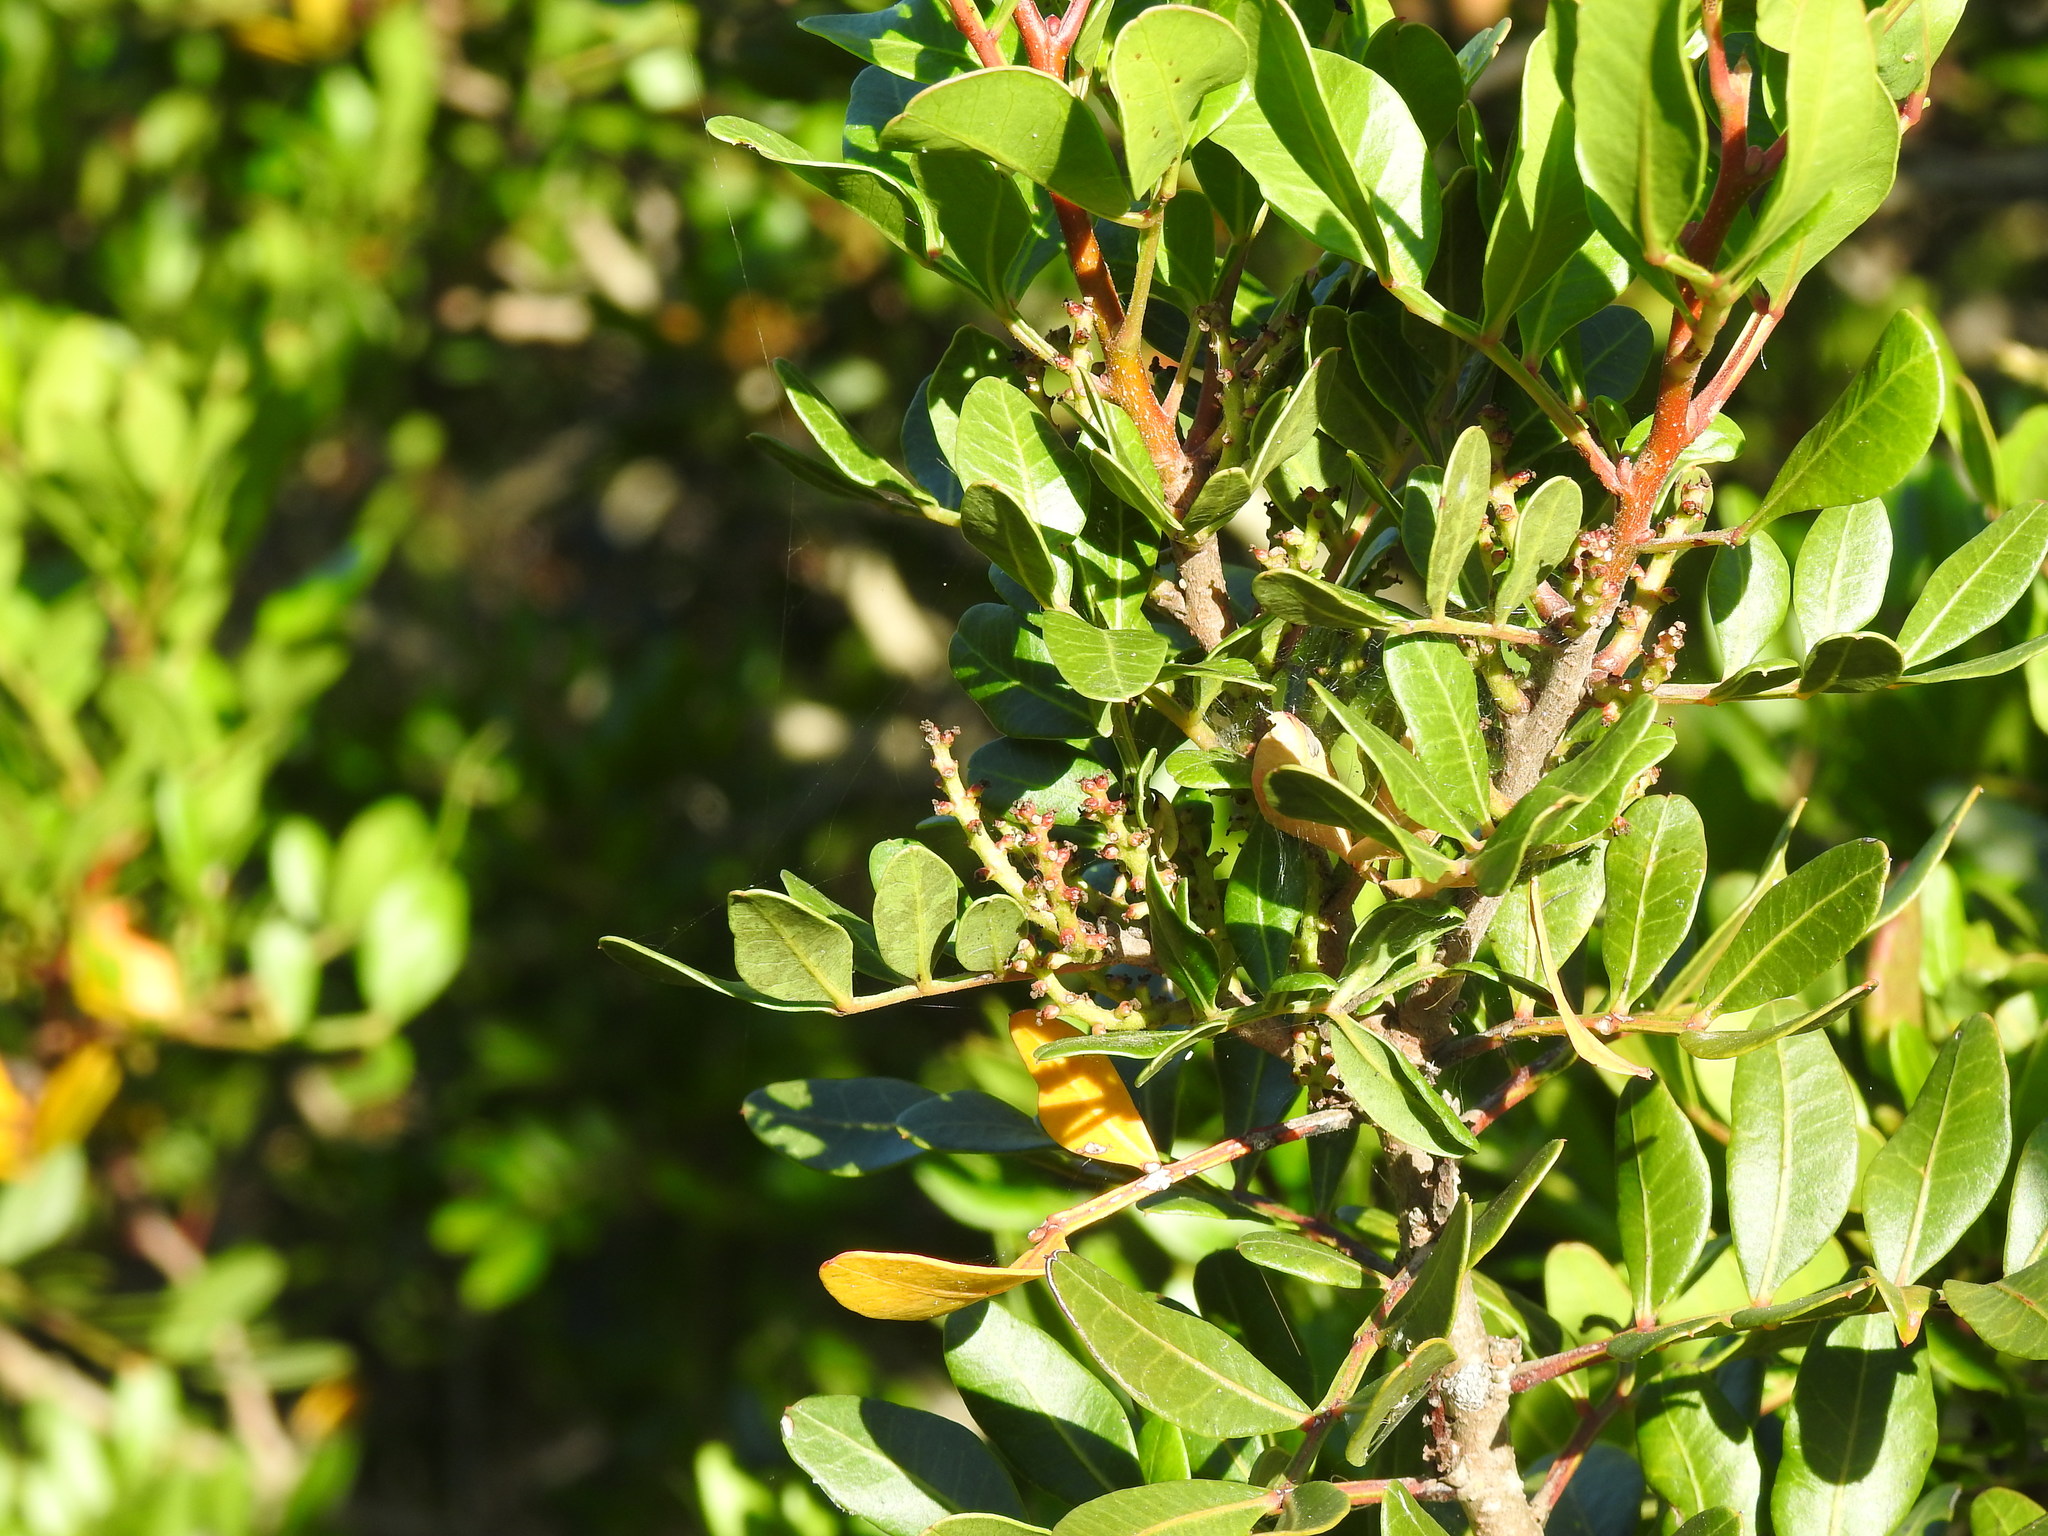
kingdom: Plantae
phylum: Tracheophyta
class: Magnoliopsida
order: Sapindales
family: Anacardiaceae
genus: Pistacia
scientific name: Pistacia lentiscus
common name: Lentisk
